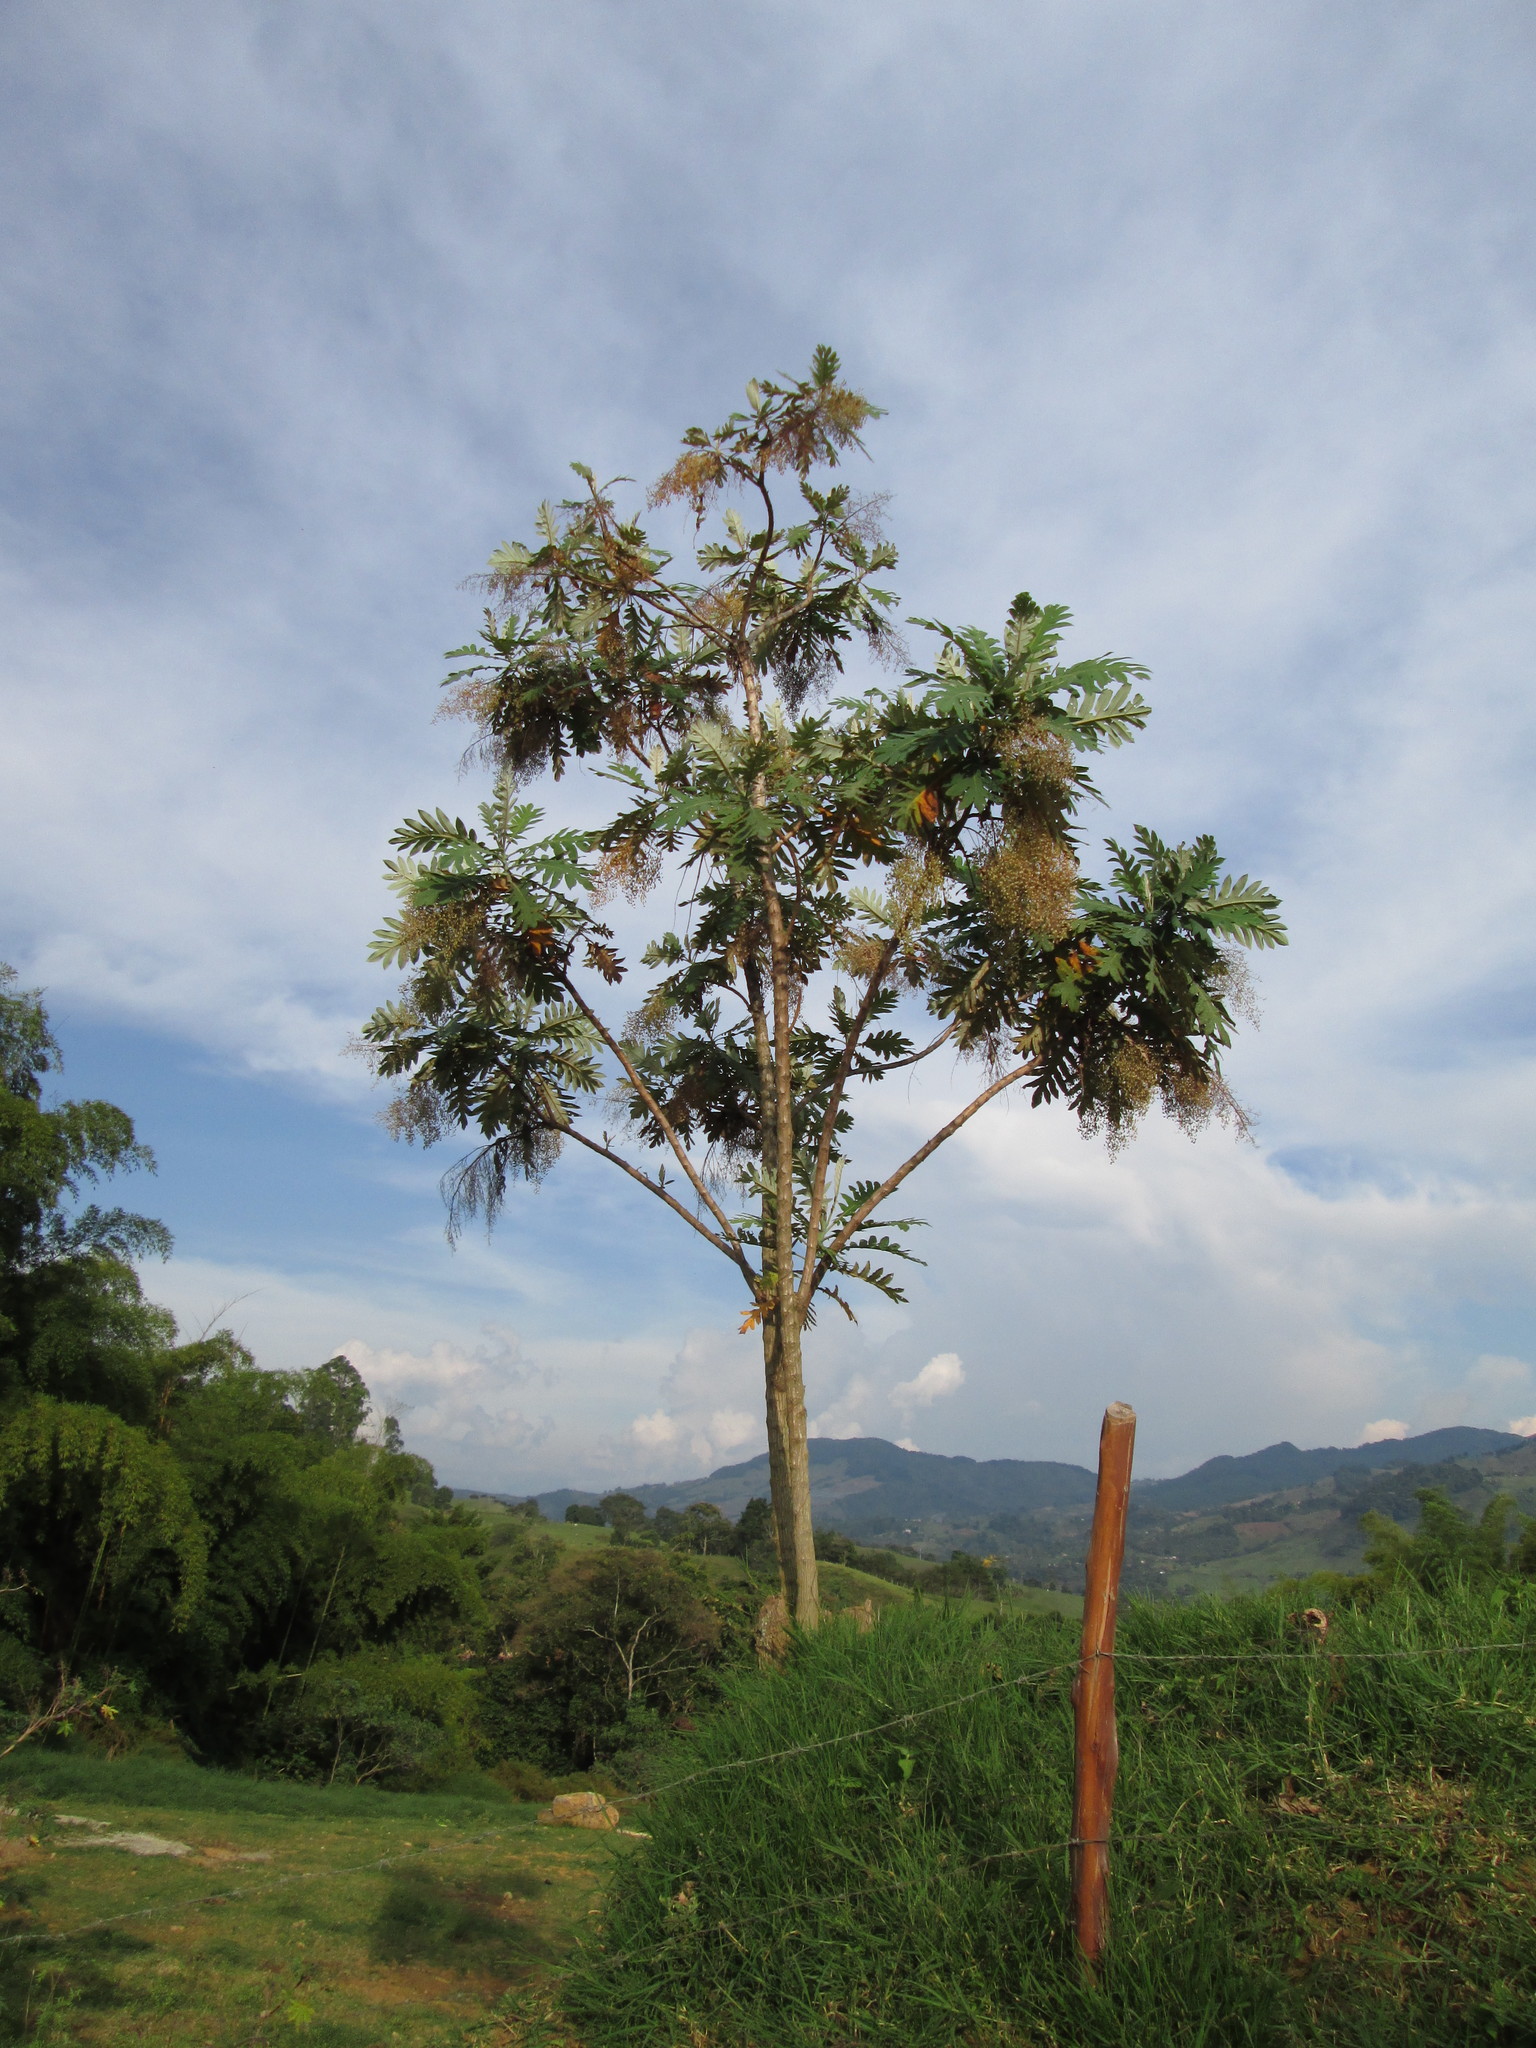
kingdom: Plantae
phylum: Tracheophyta
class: Magnoliopsida
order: Ranunculales
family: Papaveraceae
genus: Bocconia
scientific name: Bocconia frutescens
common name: Tree poppy
